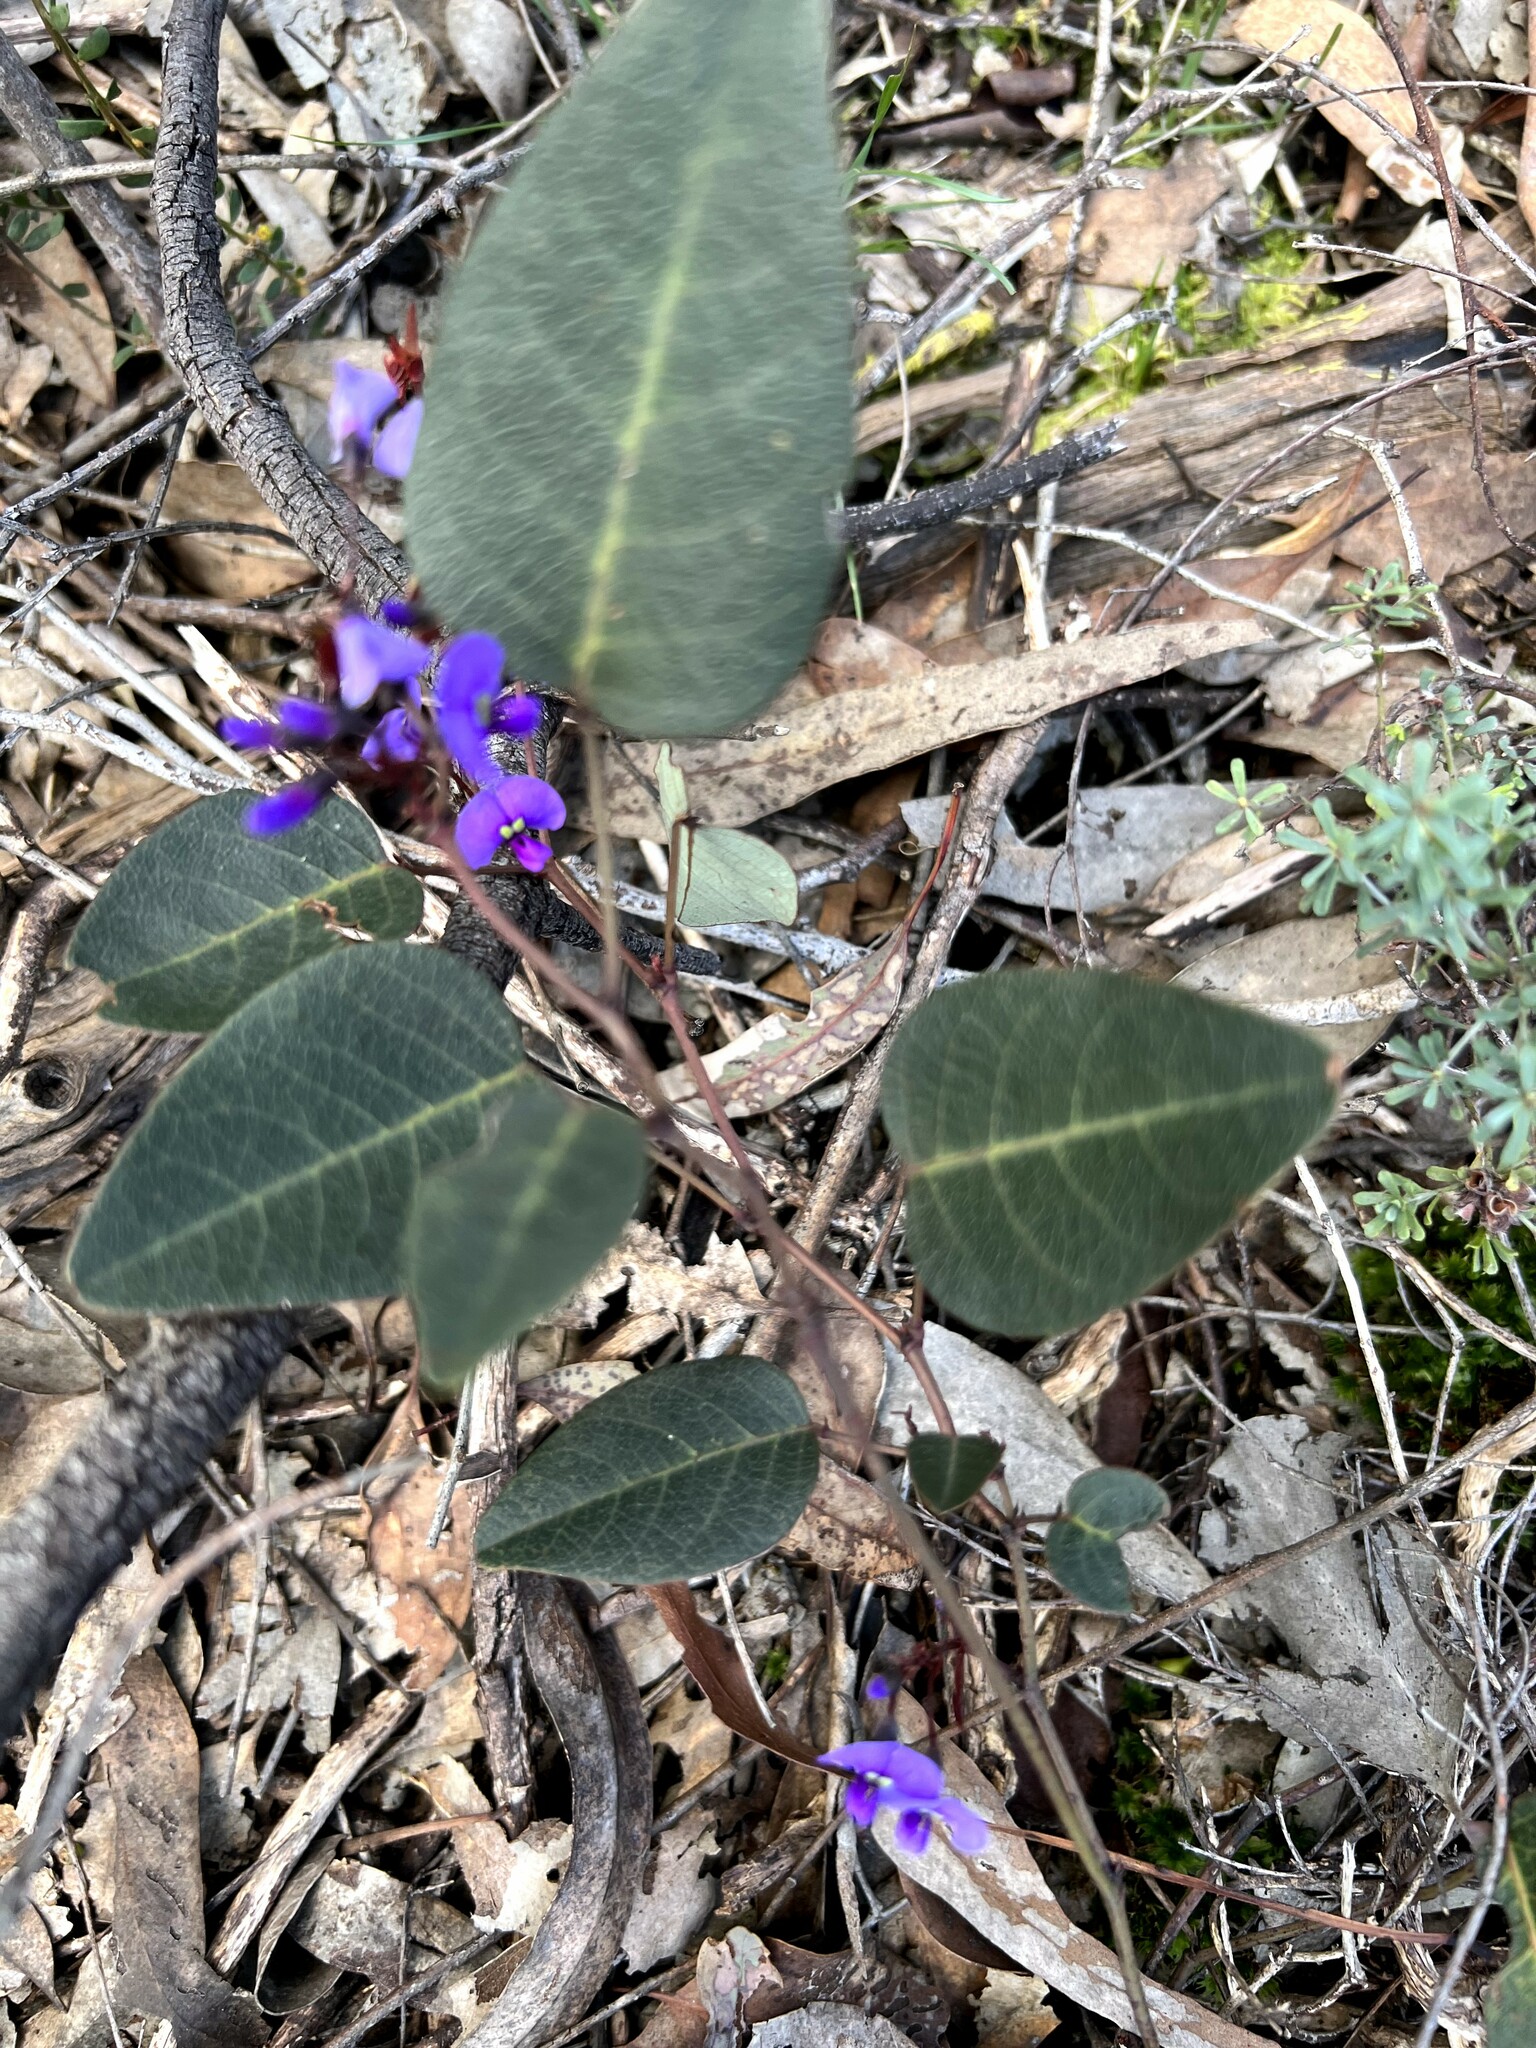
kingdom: Plantae
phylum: Tracheophyta
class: Magnoliopsida
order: Fabales
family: Fabaceae
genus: Hardenbergia
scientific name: Hardenbergia violacea
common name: Coral-pea
